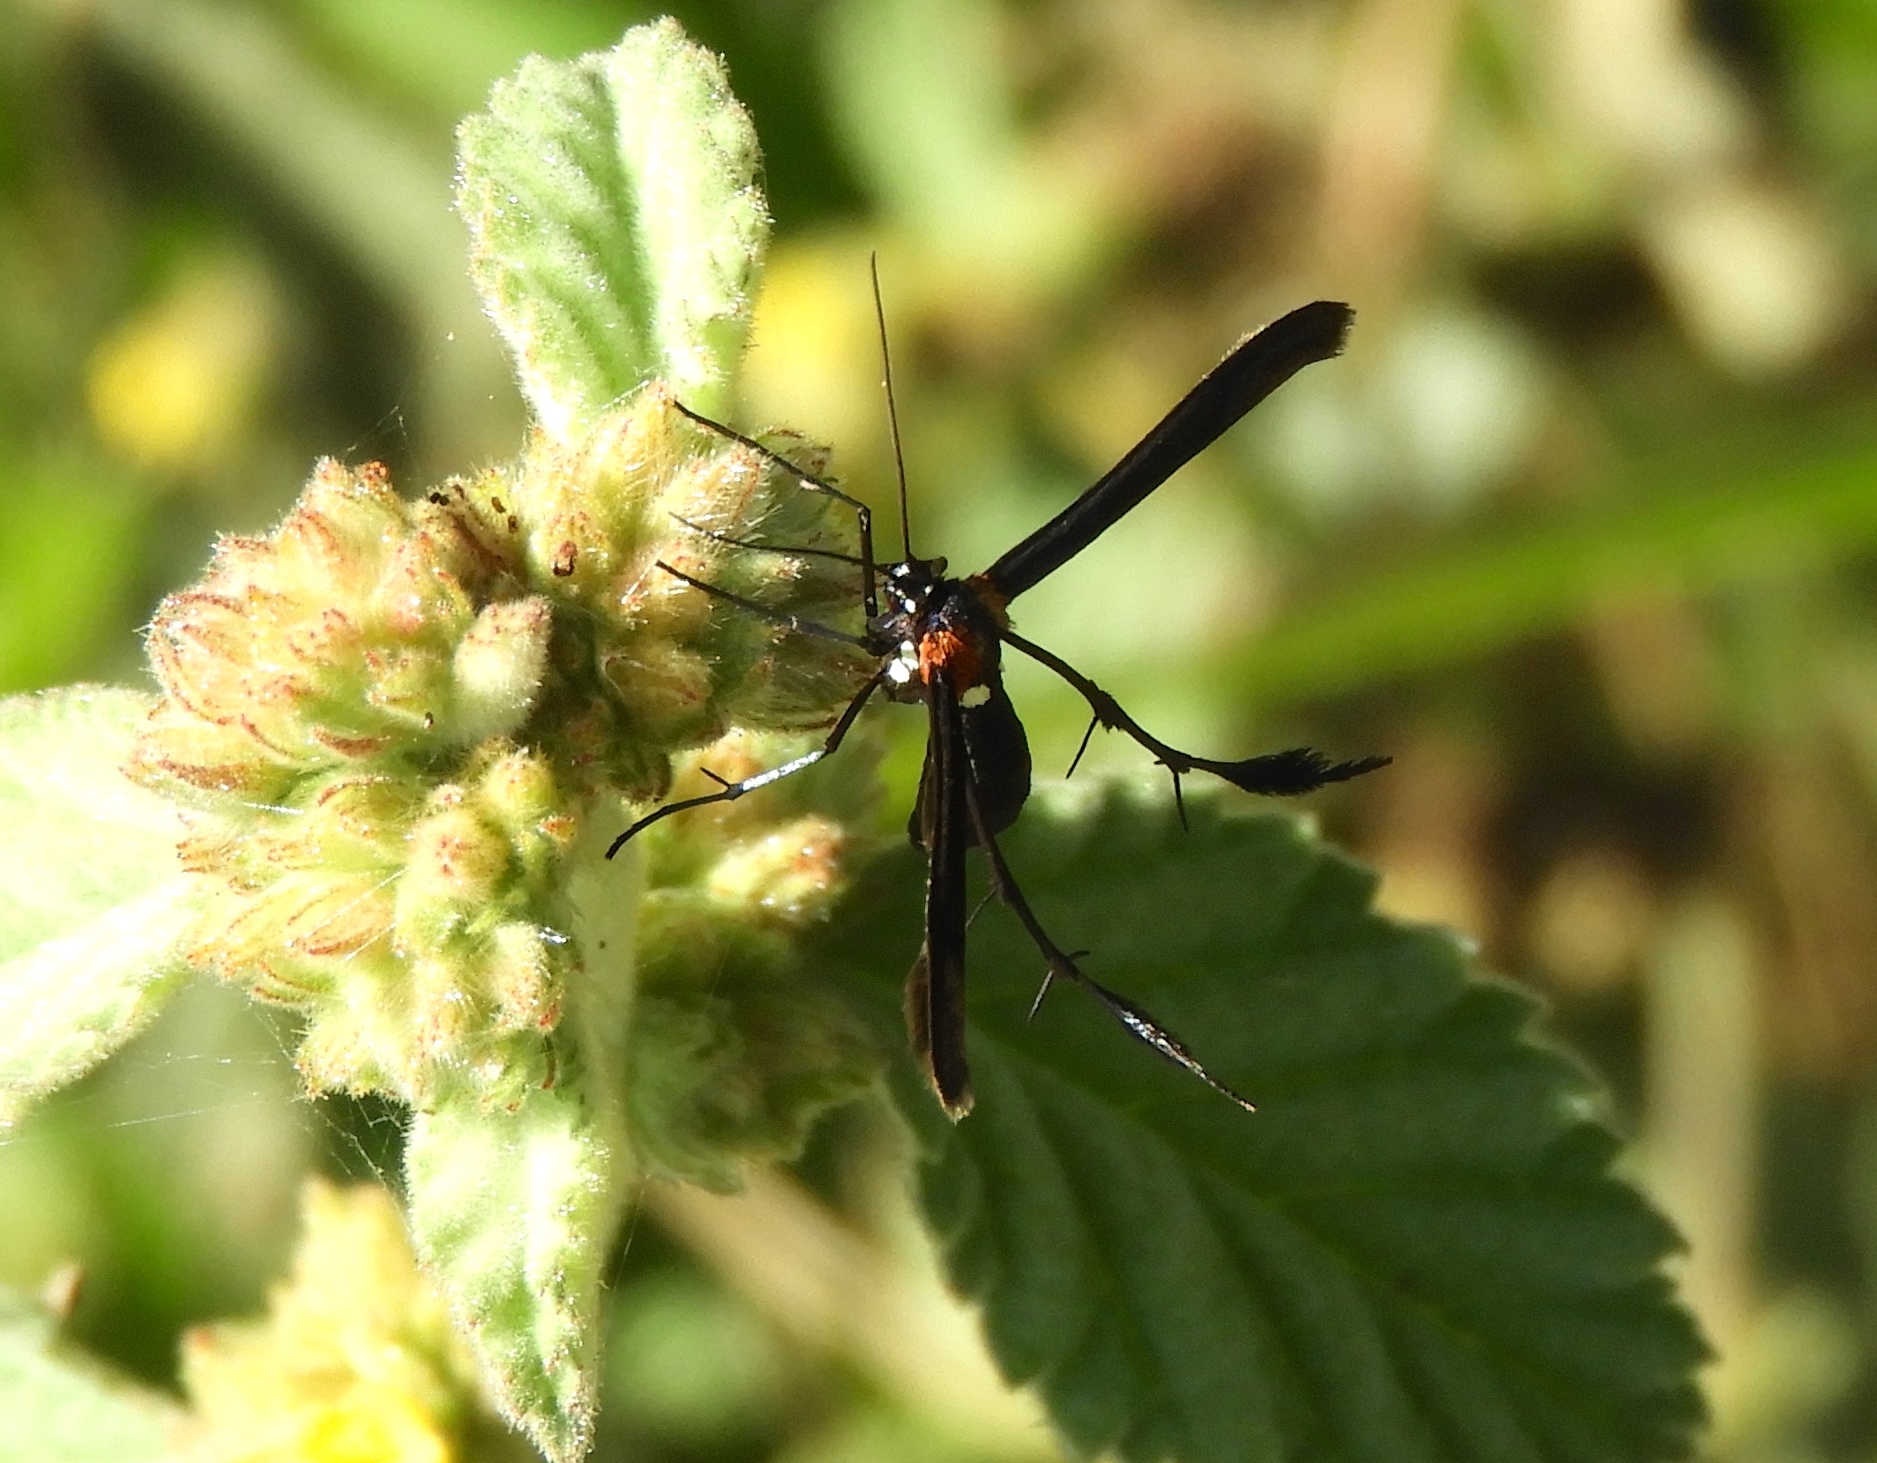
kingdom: Animalia
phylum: Arthropoda
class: Insecta
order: Lepidoptera
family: Pterophoridae
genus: Hellinsia
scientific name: Hellinsia chamelai
